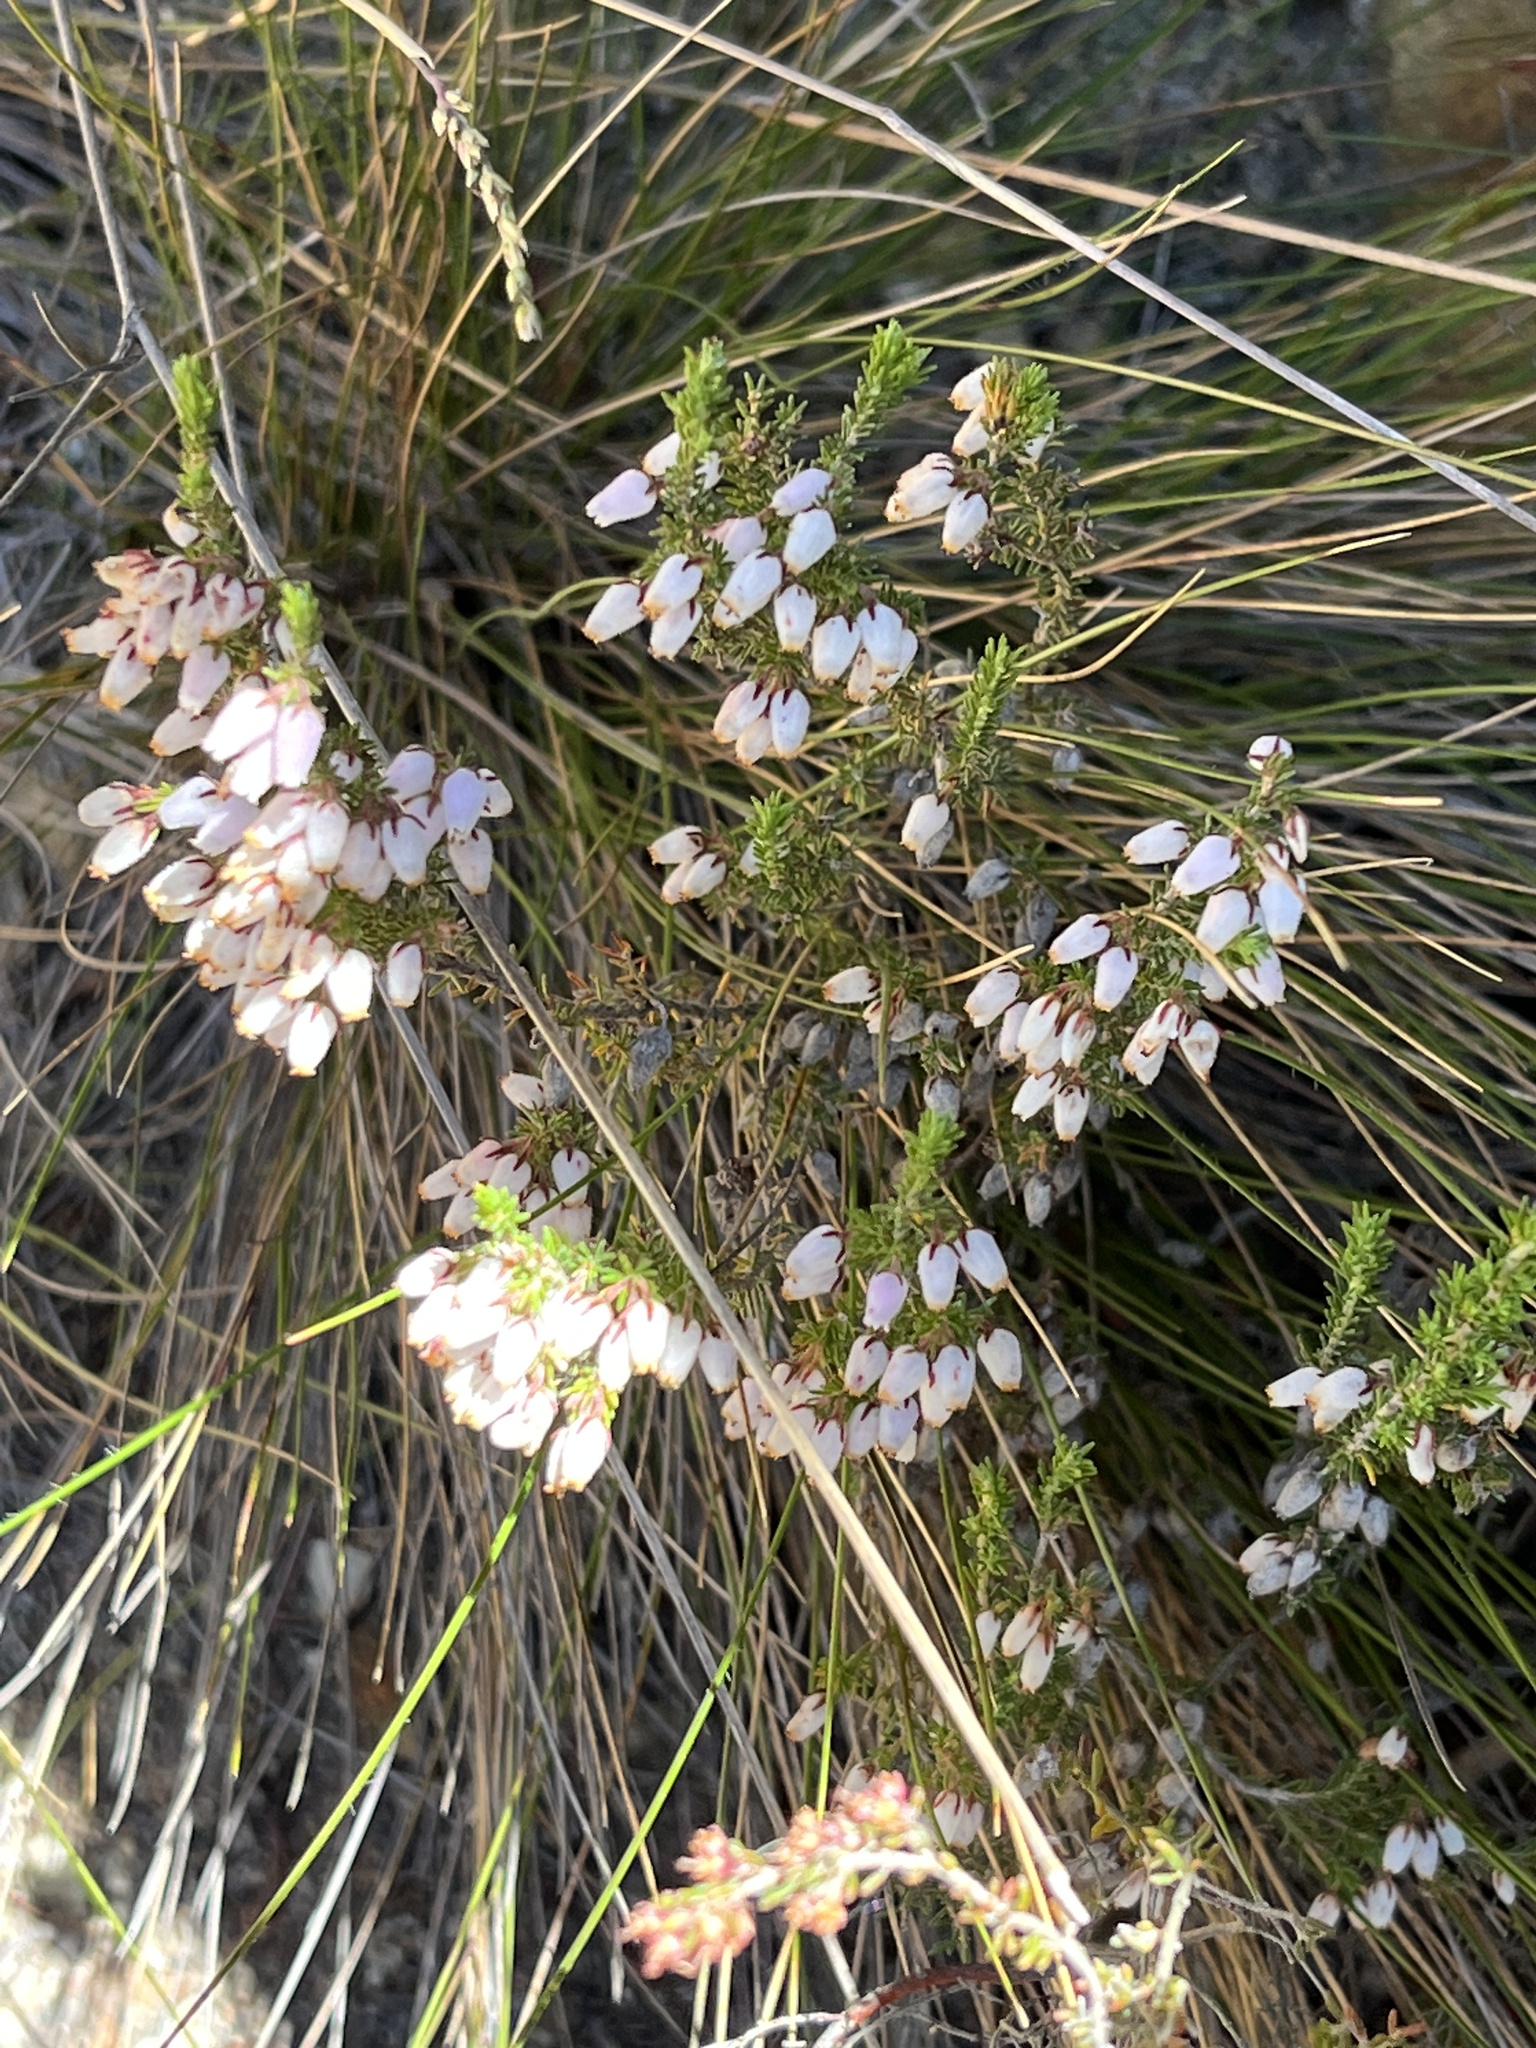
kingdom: Plantae
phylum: Tracheophyta
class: Magnoliopsida
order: Ericales
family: Ericaceae
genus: Erica
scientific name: Erica pubigera
